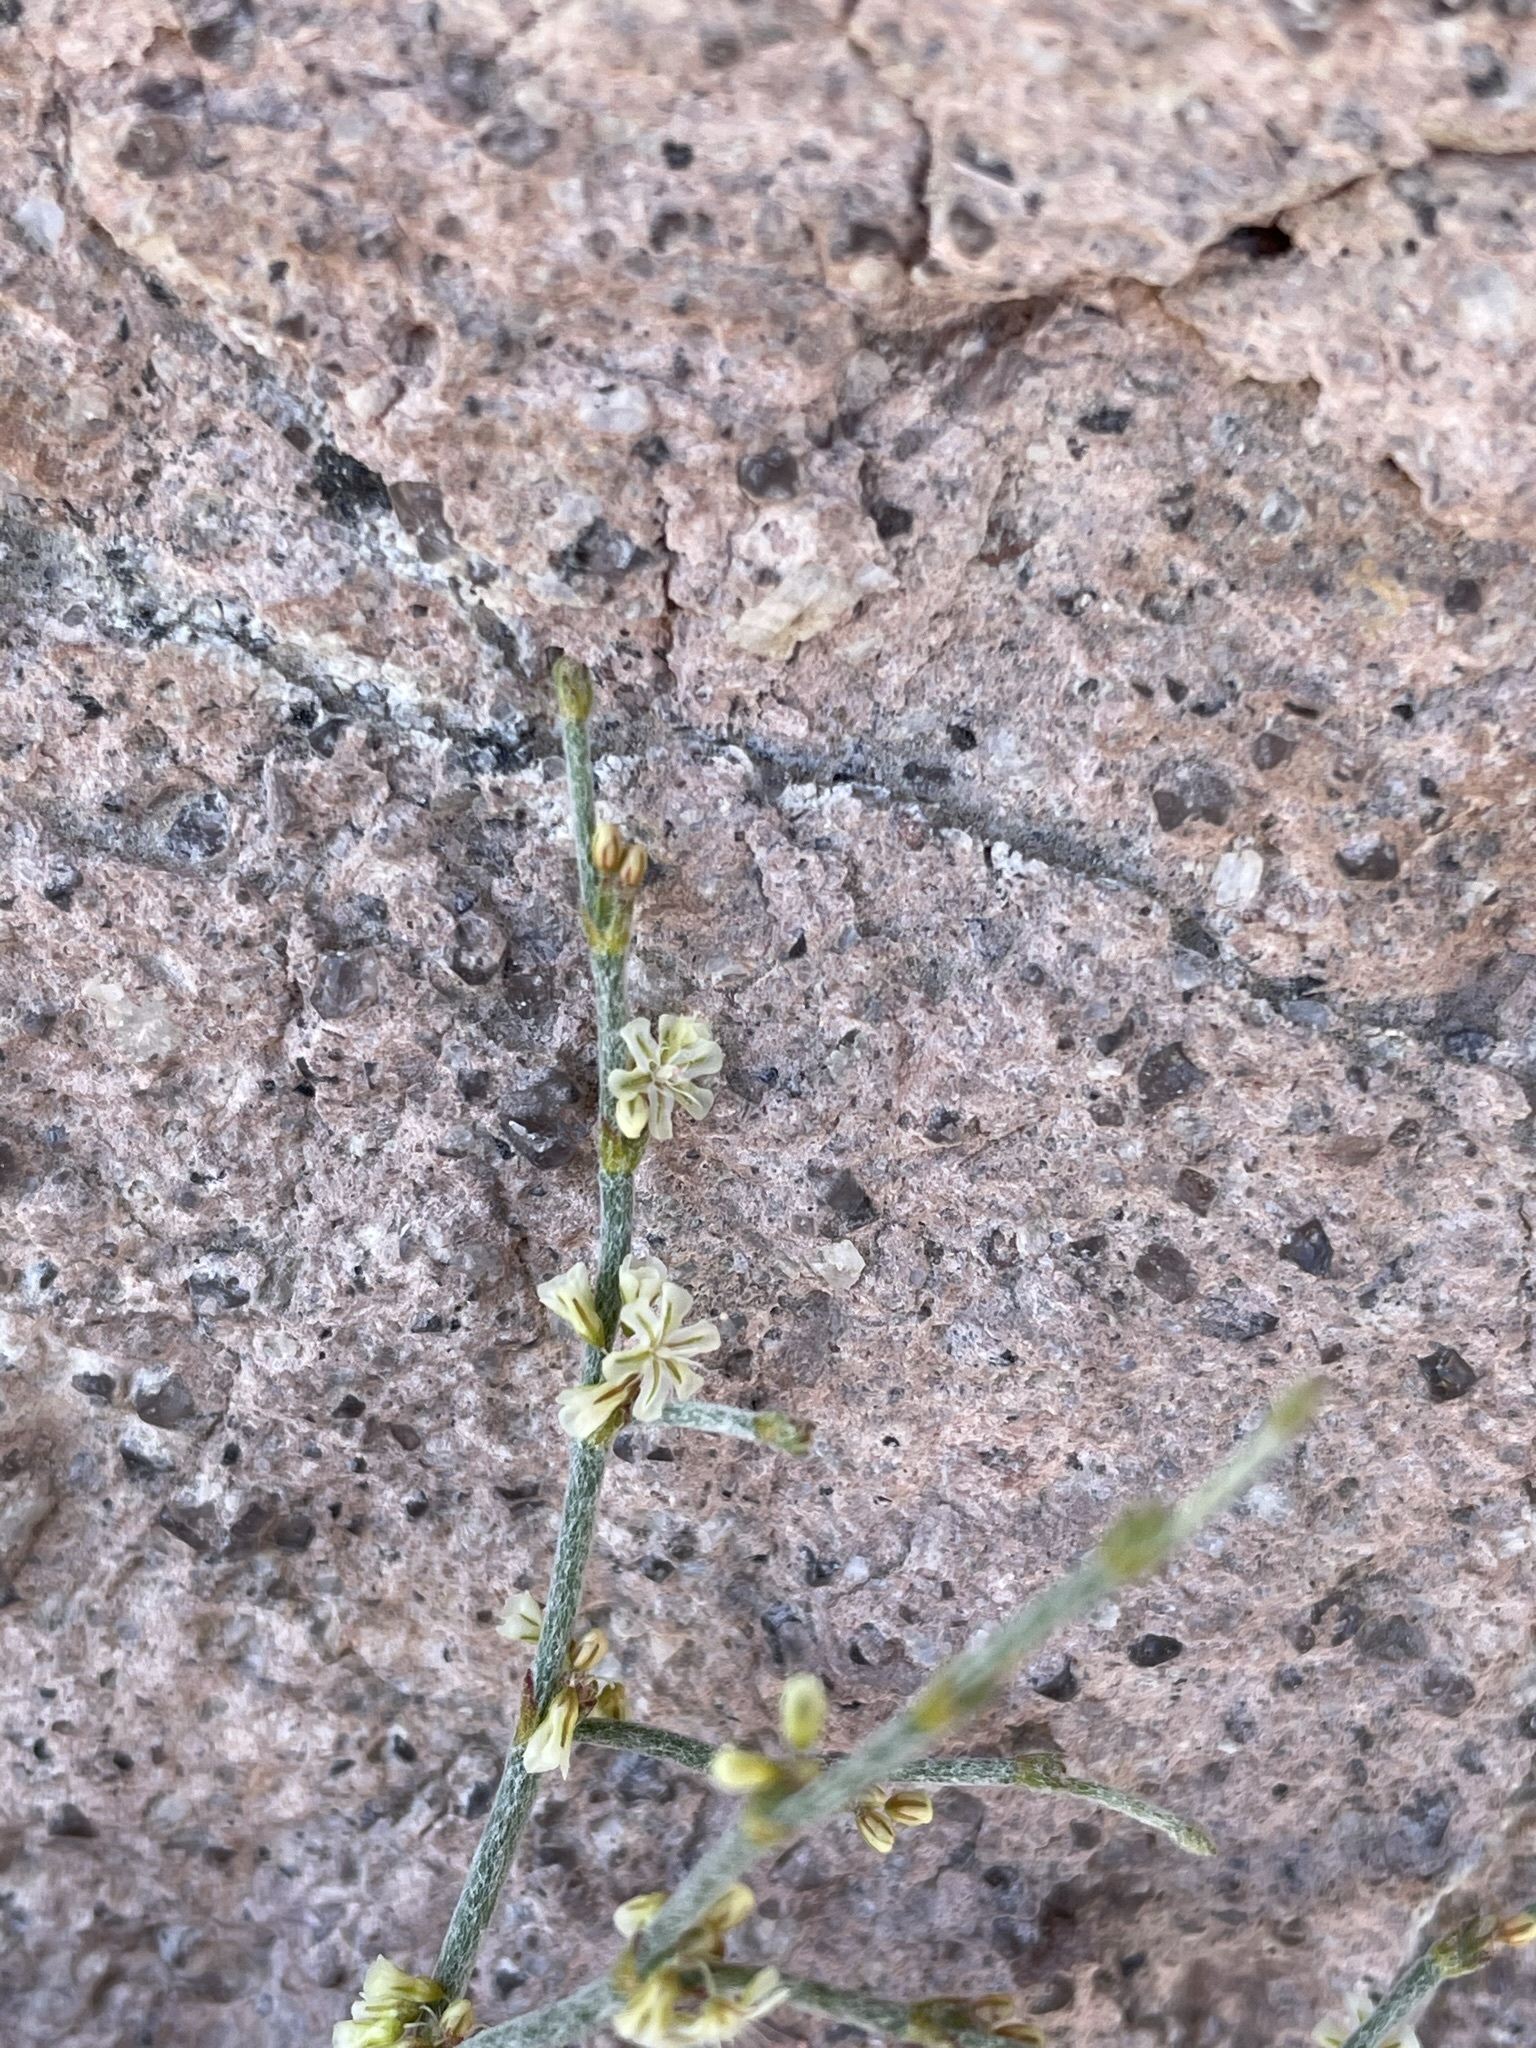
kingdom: Plantae
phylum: Tracheophyta
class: Magnoliopsida
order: Caryophyllales
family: Polygonaceae
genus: Eriogonum
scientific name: Eriogonum palmerianum
